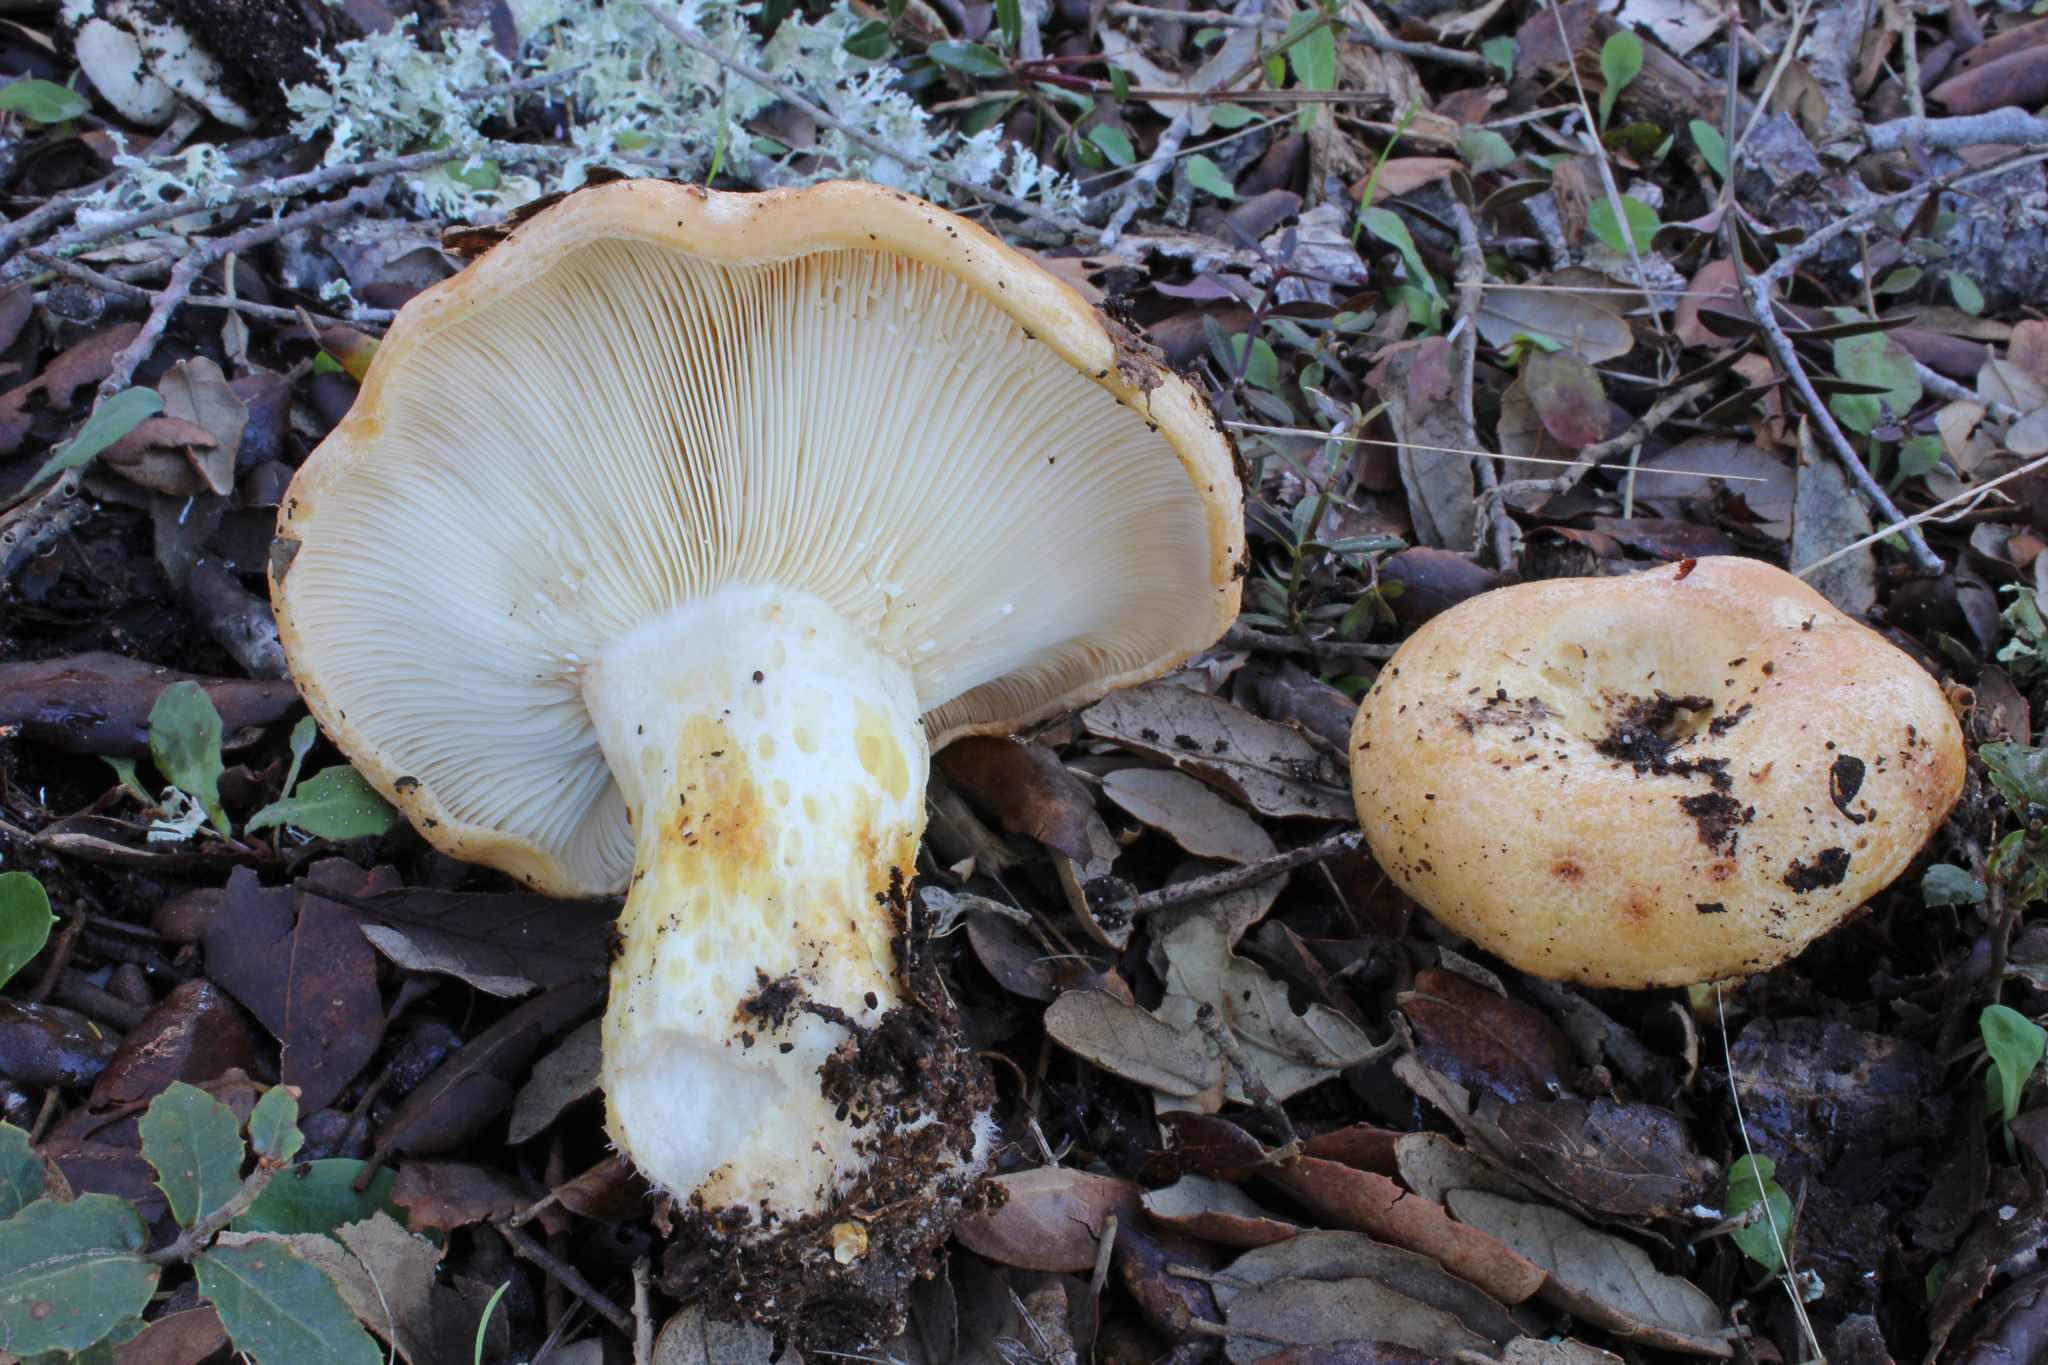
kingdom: Fungi
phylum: Basidiomycota
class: Agaricomycetes
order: Russulales
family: Russulaceae
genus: Lactarius
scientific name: Lactarius zonarius
